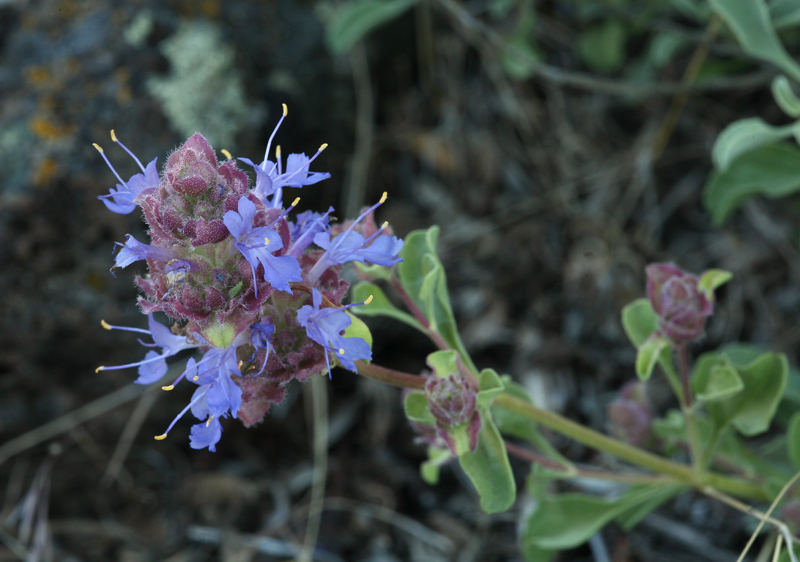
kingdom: Plantae
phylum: Tracheophyta
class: Magnoliopsida
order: Lamiales
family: Lamiaceae
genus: Salvia
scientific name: Salvia dorrii
